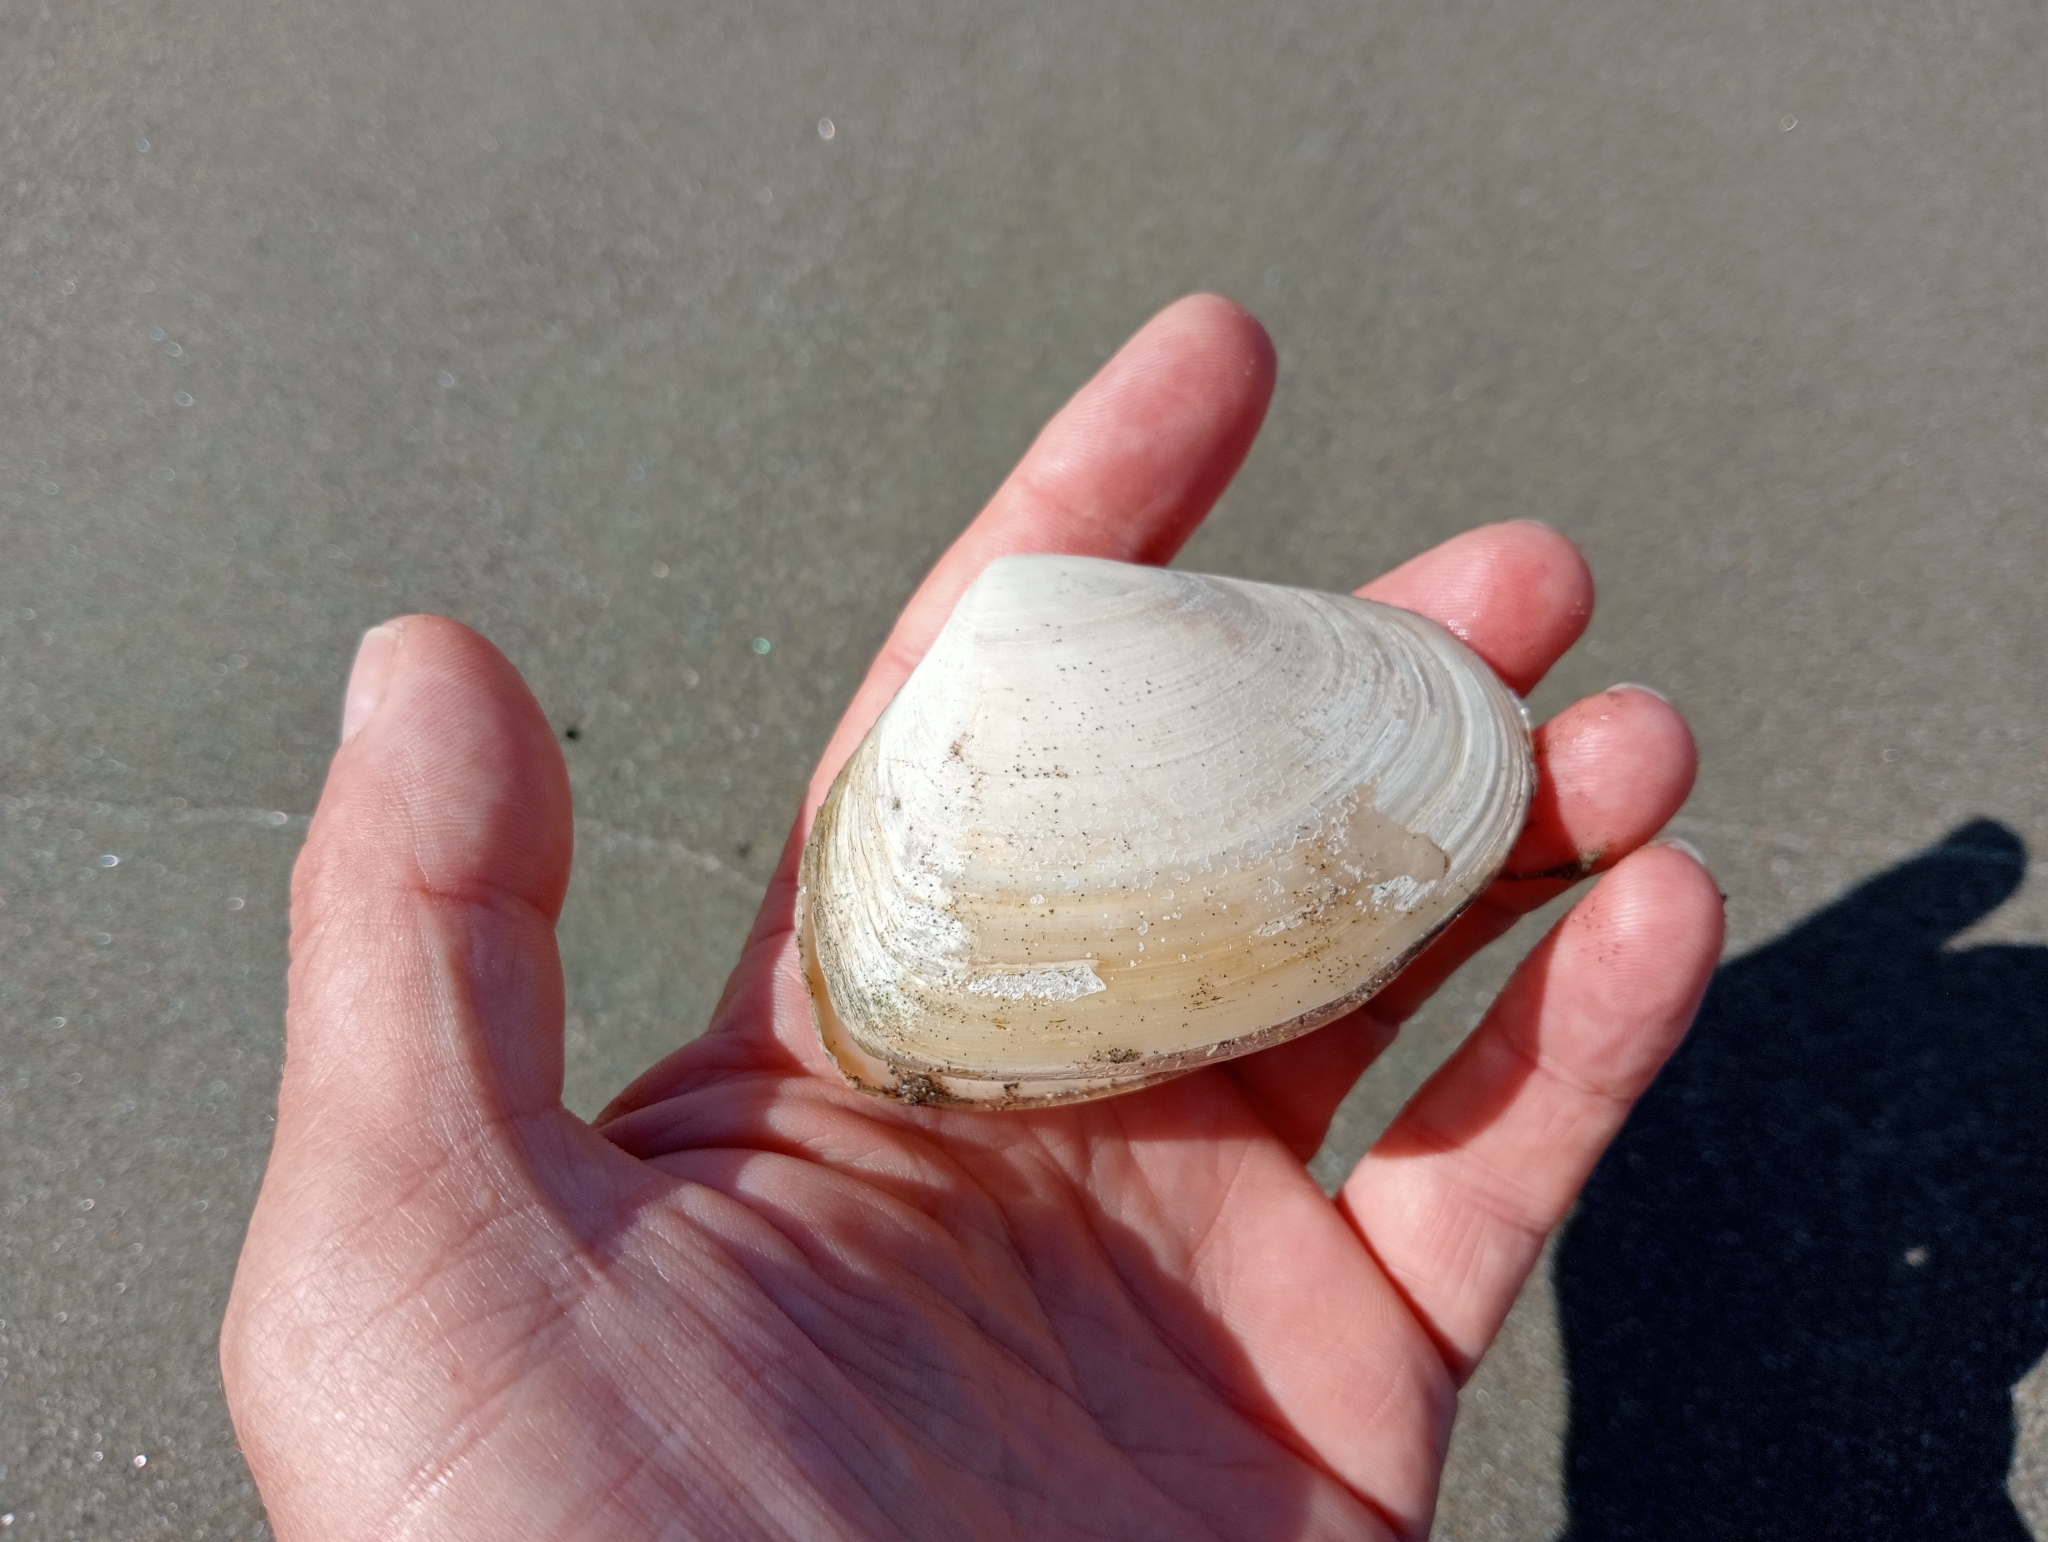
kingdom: Animalia
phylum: Mollusca
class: Bivalvia
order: Venerida
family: Mesodesmatidae
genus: Paphies
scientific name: Paphies donacina
